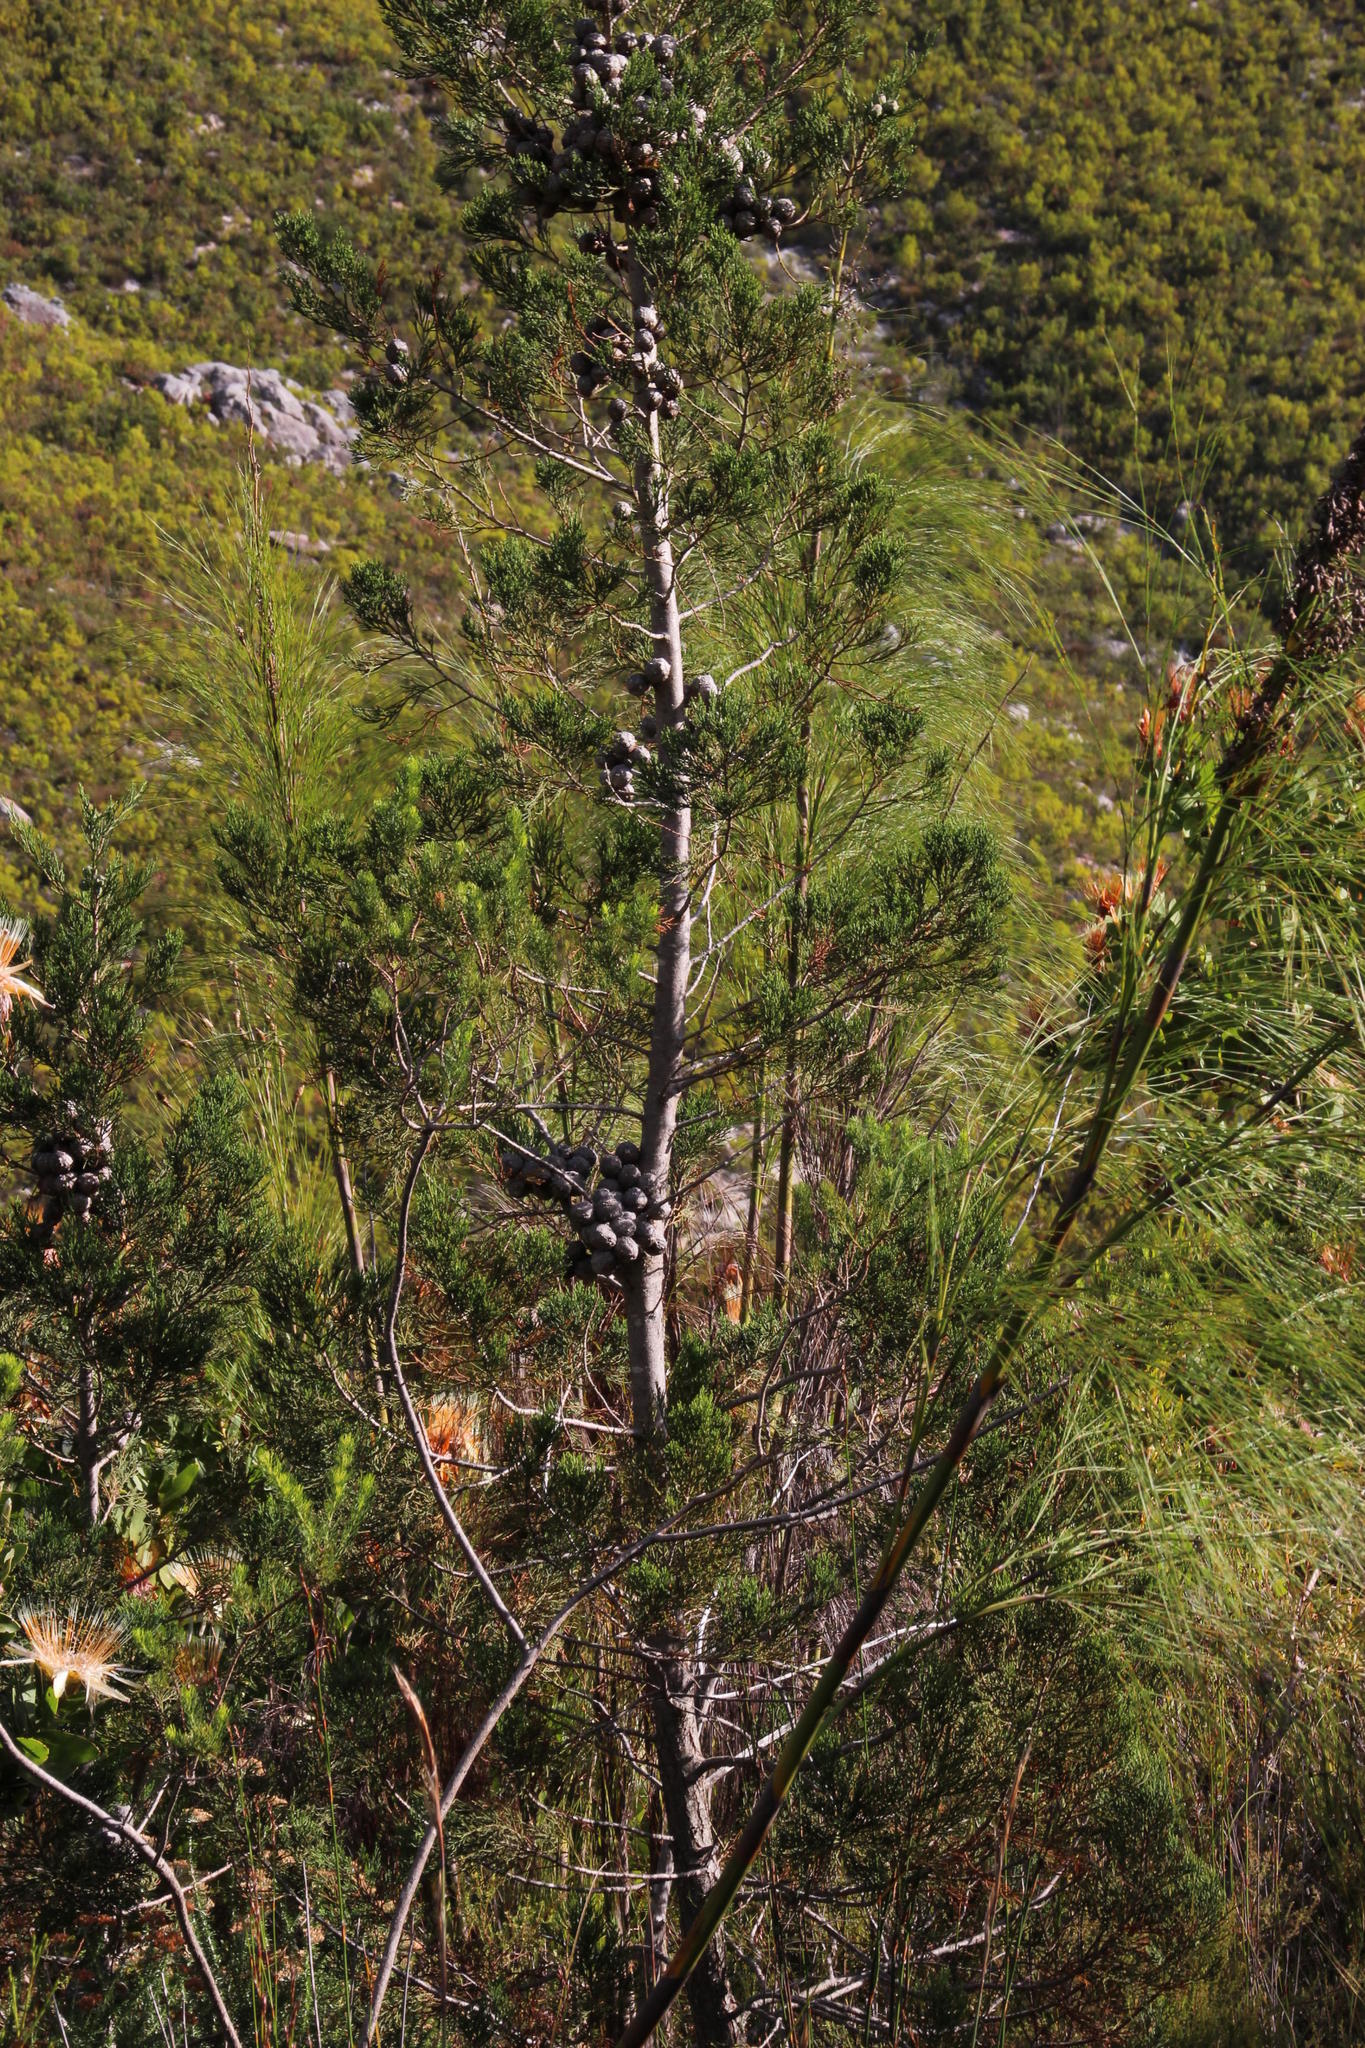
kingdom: Plantae
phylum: Tracheophyta
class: Pinopsida
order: Pinales
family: Cupressaceae
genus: Widdringtonia
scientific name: Widdringtonia nodiflora
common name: Cape cypress
